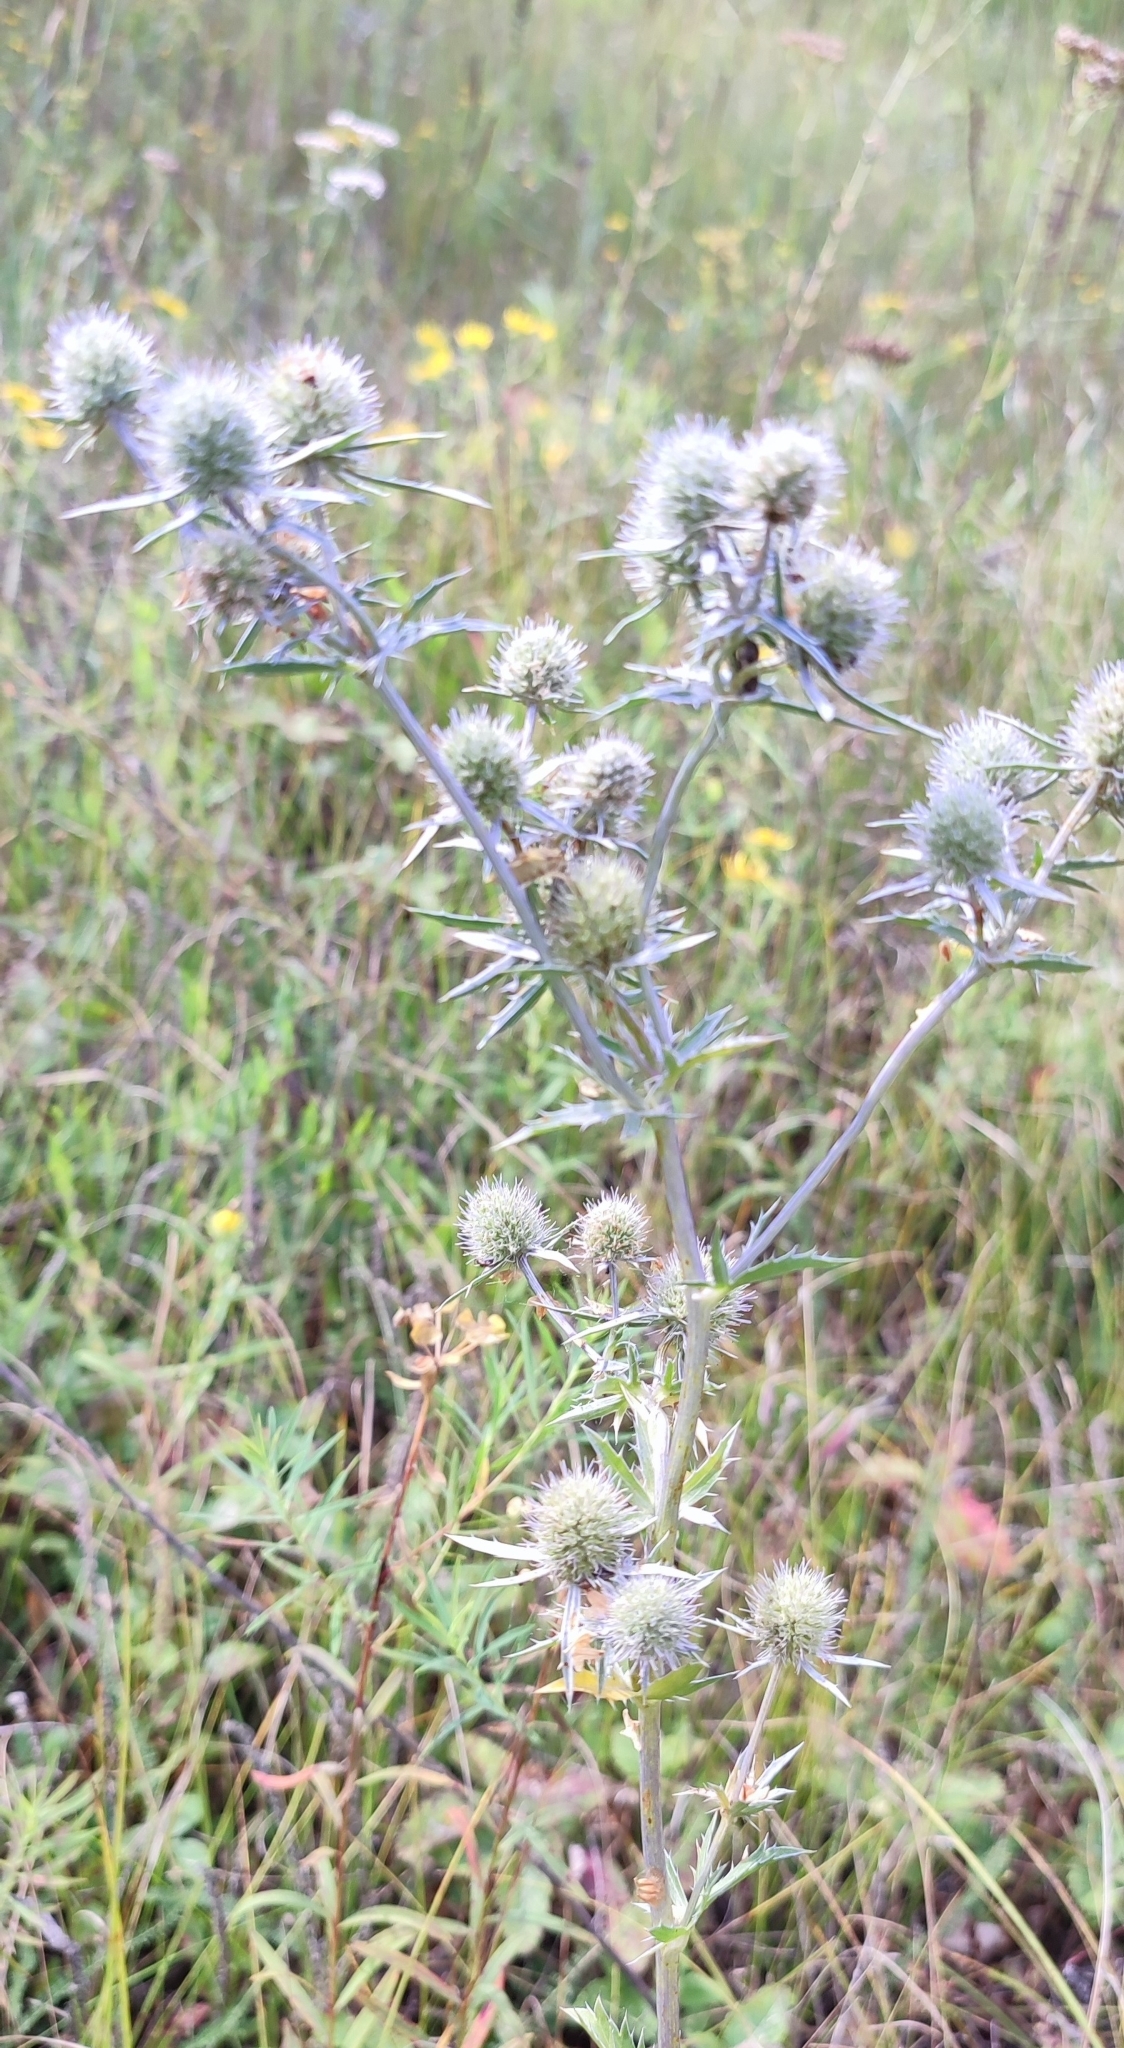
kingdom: Plantae
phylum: Tracheophyta
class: Magnoliopsida
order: Apiales
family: Apiaceae
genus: Eryngium
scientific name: Eryngium planum
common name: Blue eryngo
